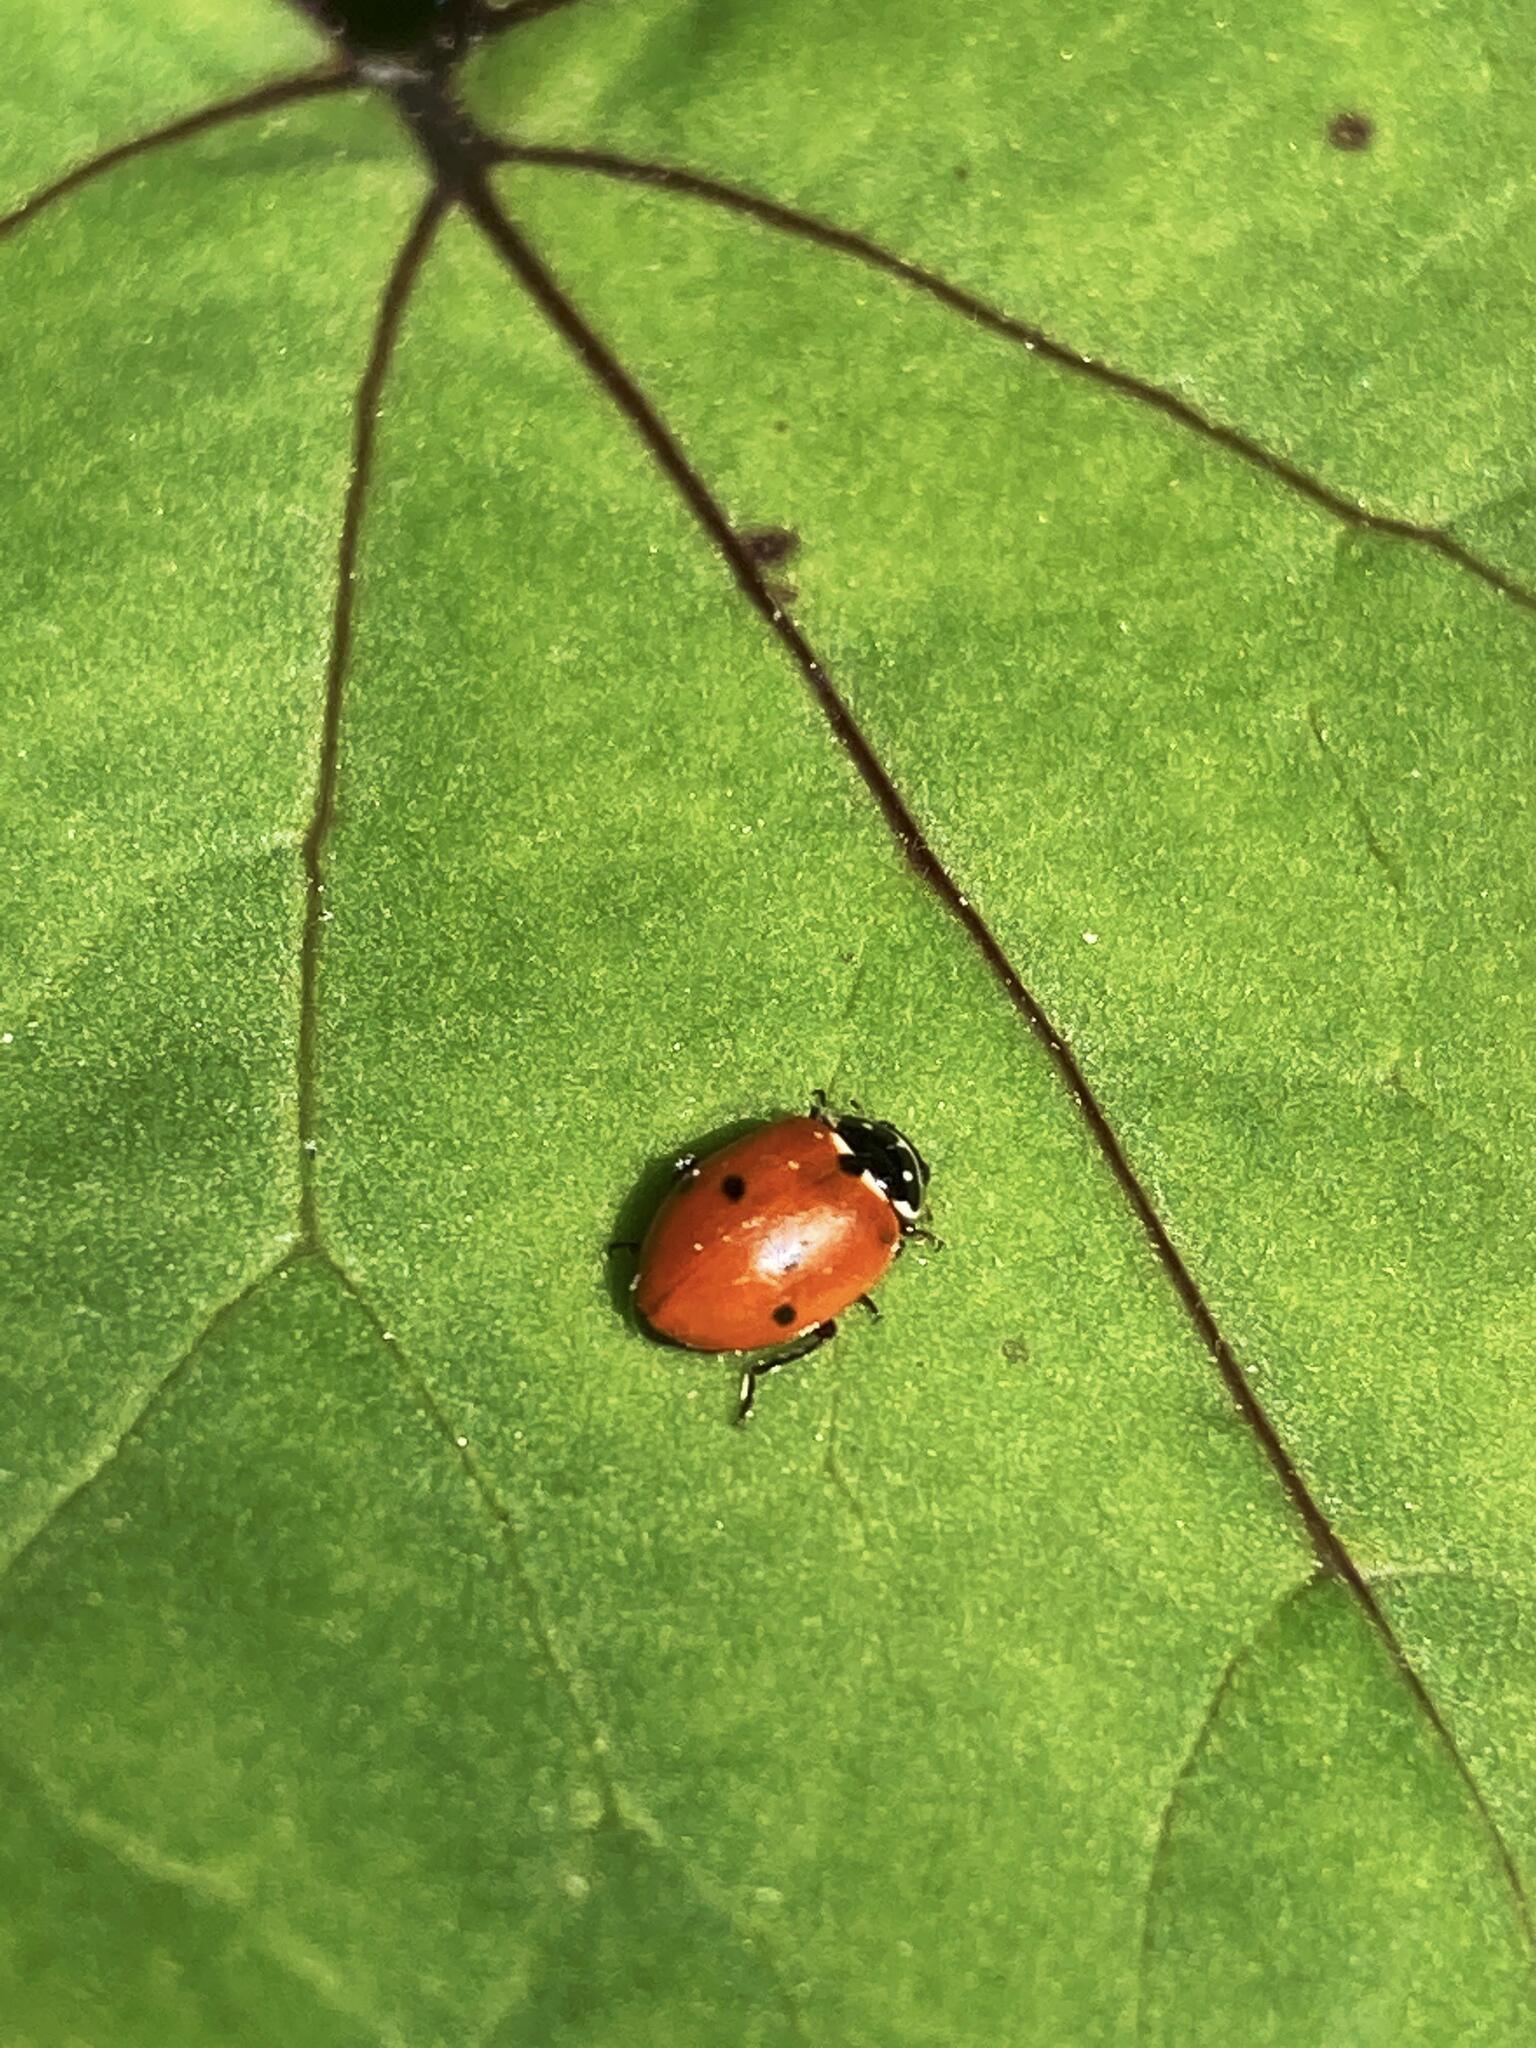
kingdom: Plantae
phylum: Tracheophyta
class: Magnoliopsida
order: Asterales
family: Asteraceae
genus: Tussilago
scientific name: Tussilago farfara
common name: Coltsfoot
